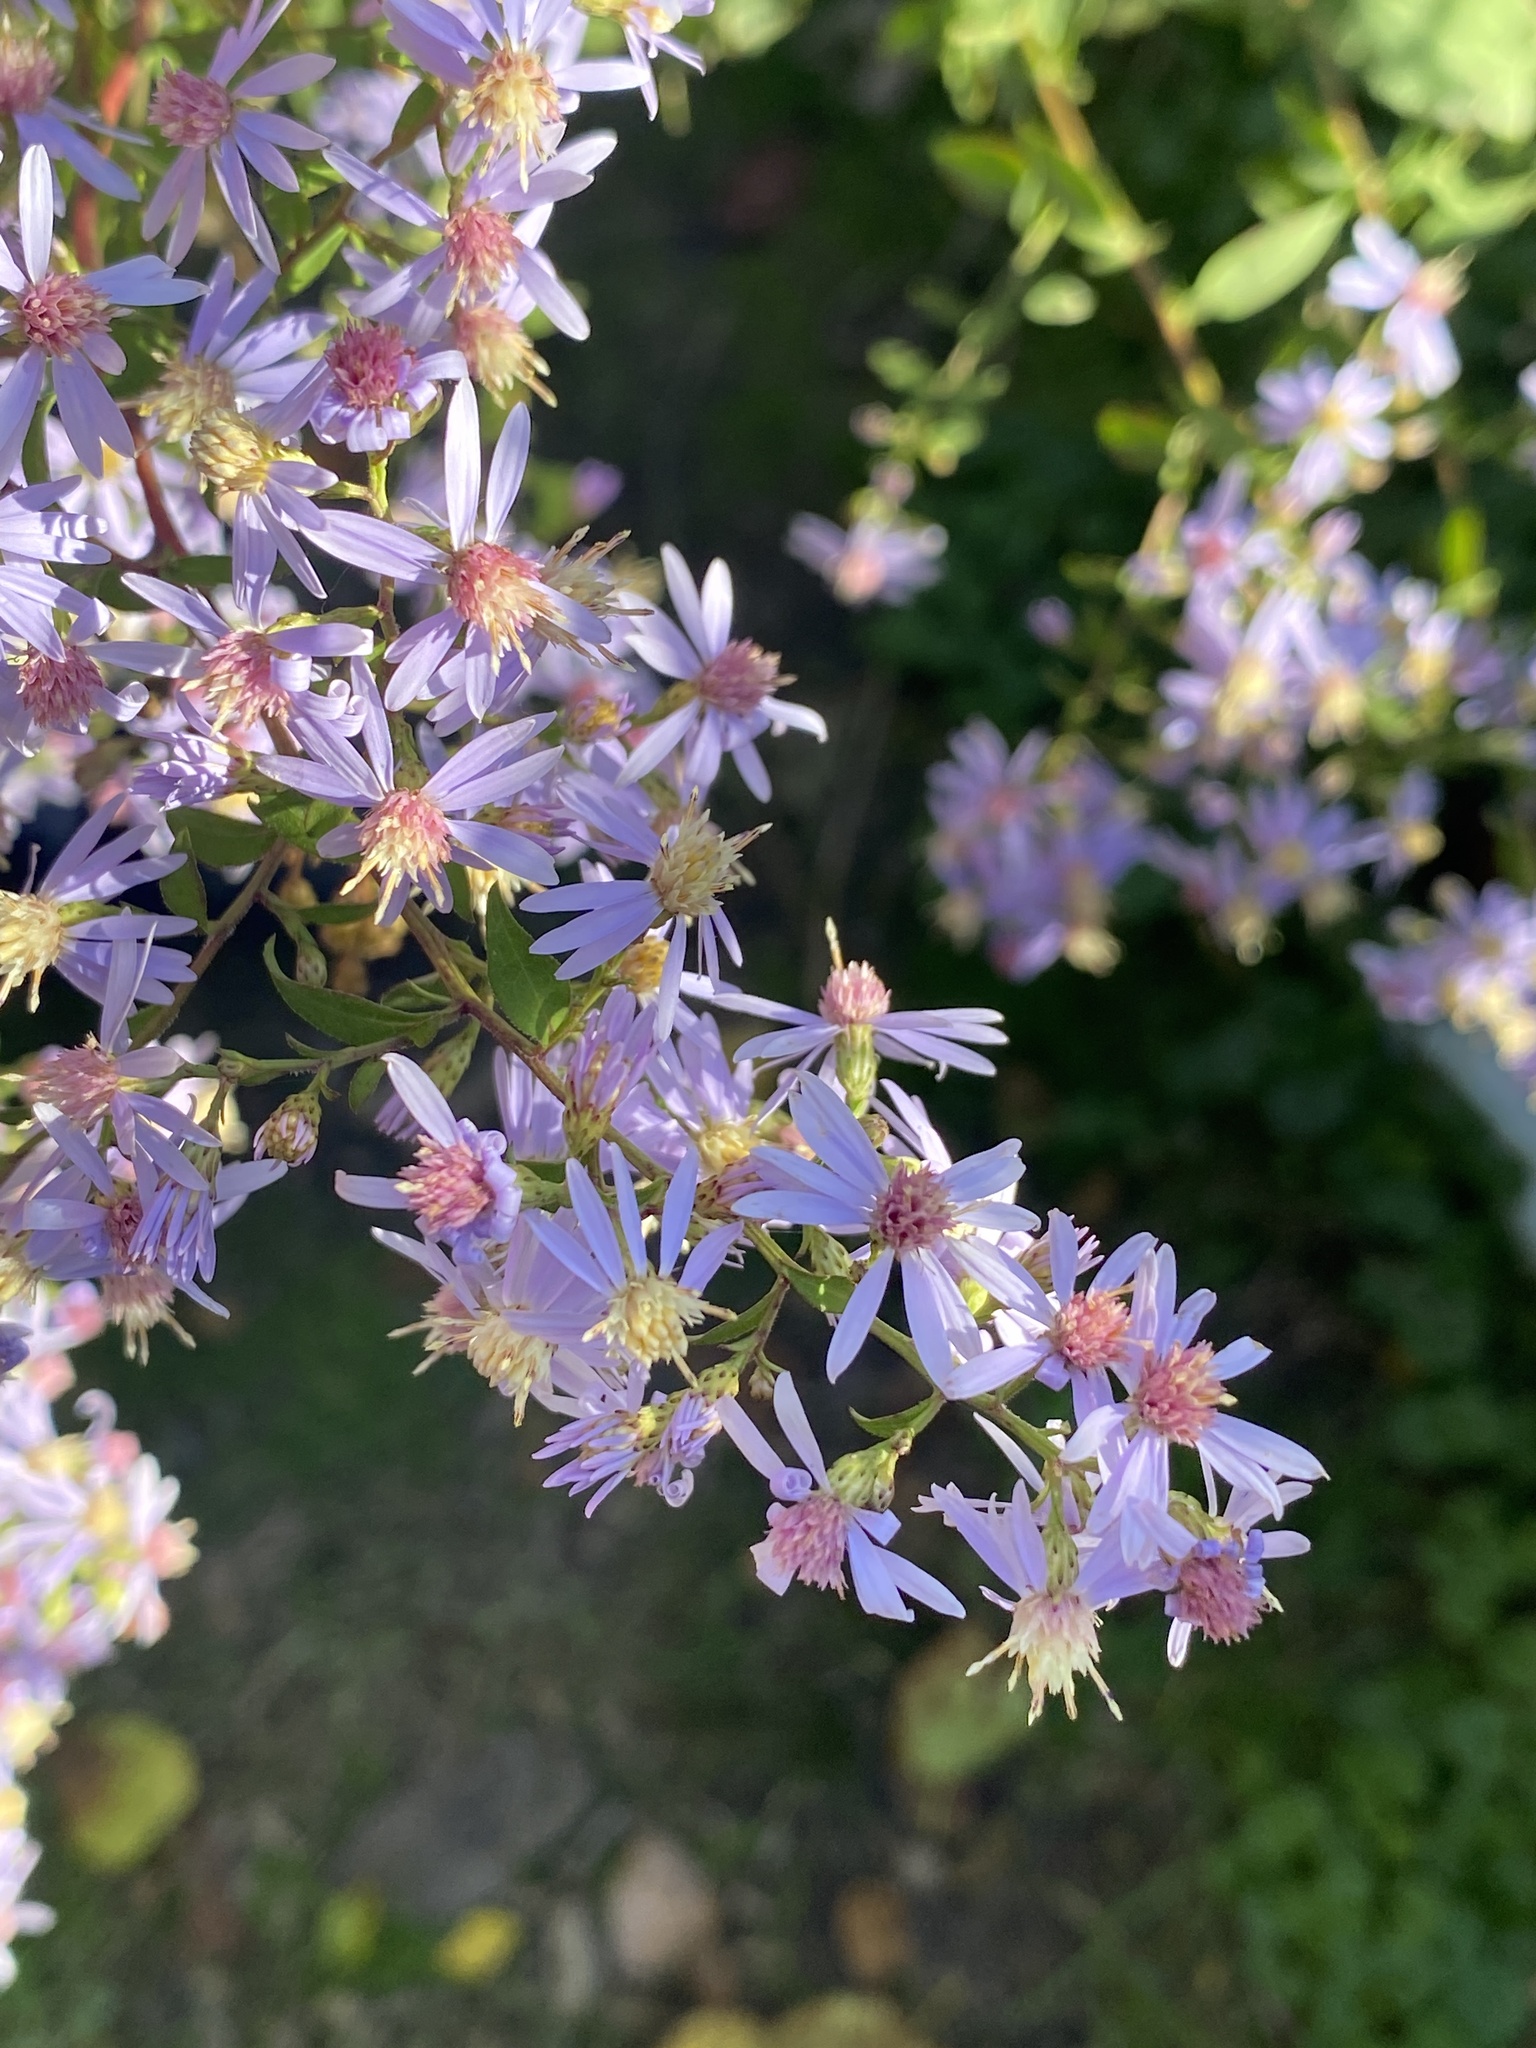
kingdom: Plantae
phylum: Tracheophyta
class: Magnoliopsida
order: Asterales
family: Asteraceae
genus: Symphyotrichum
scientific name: Symphyotrichum cordifolium
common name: Beeweed
